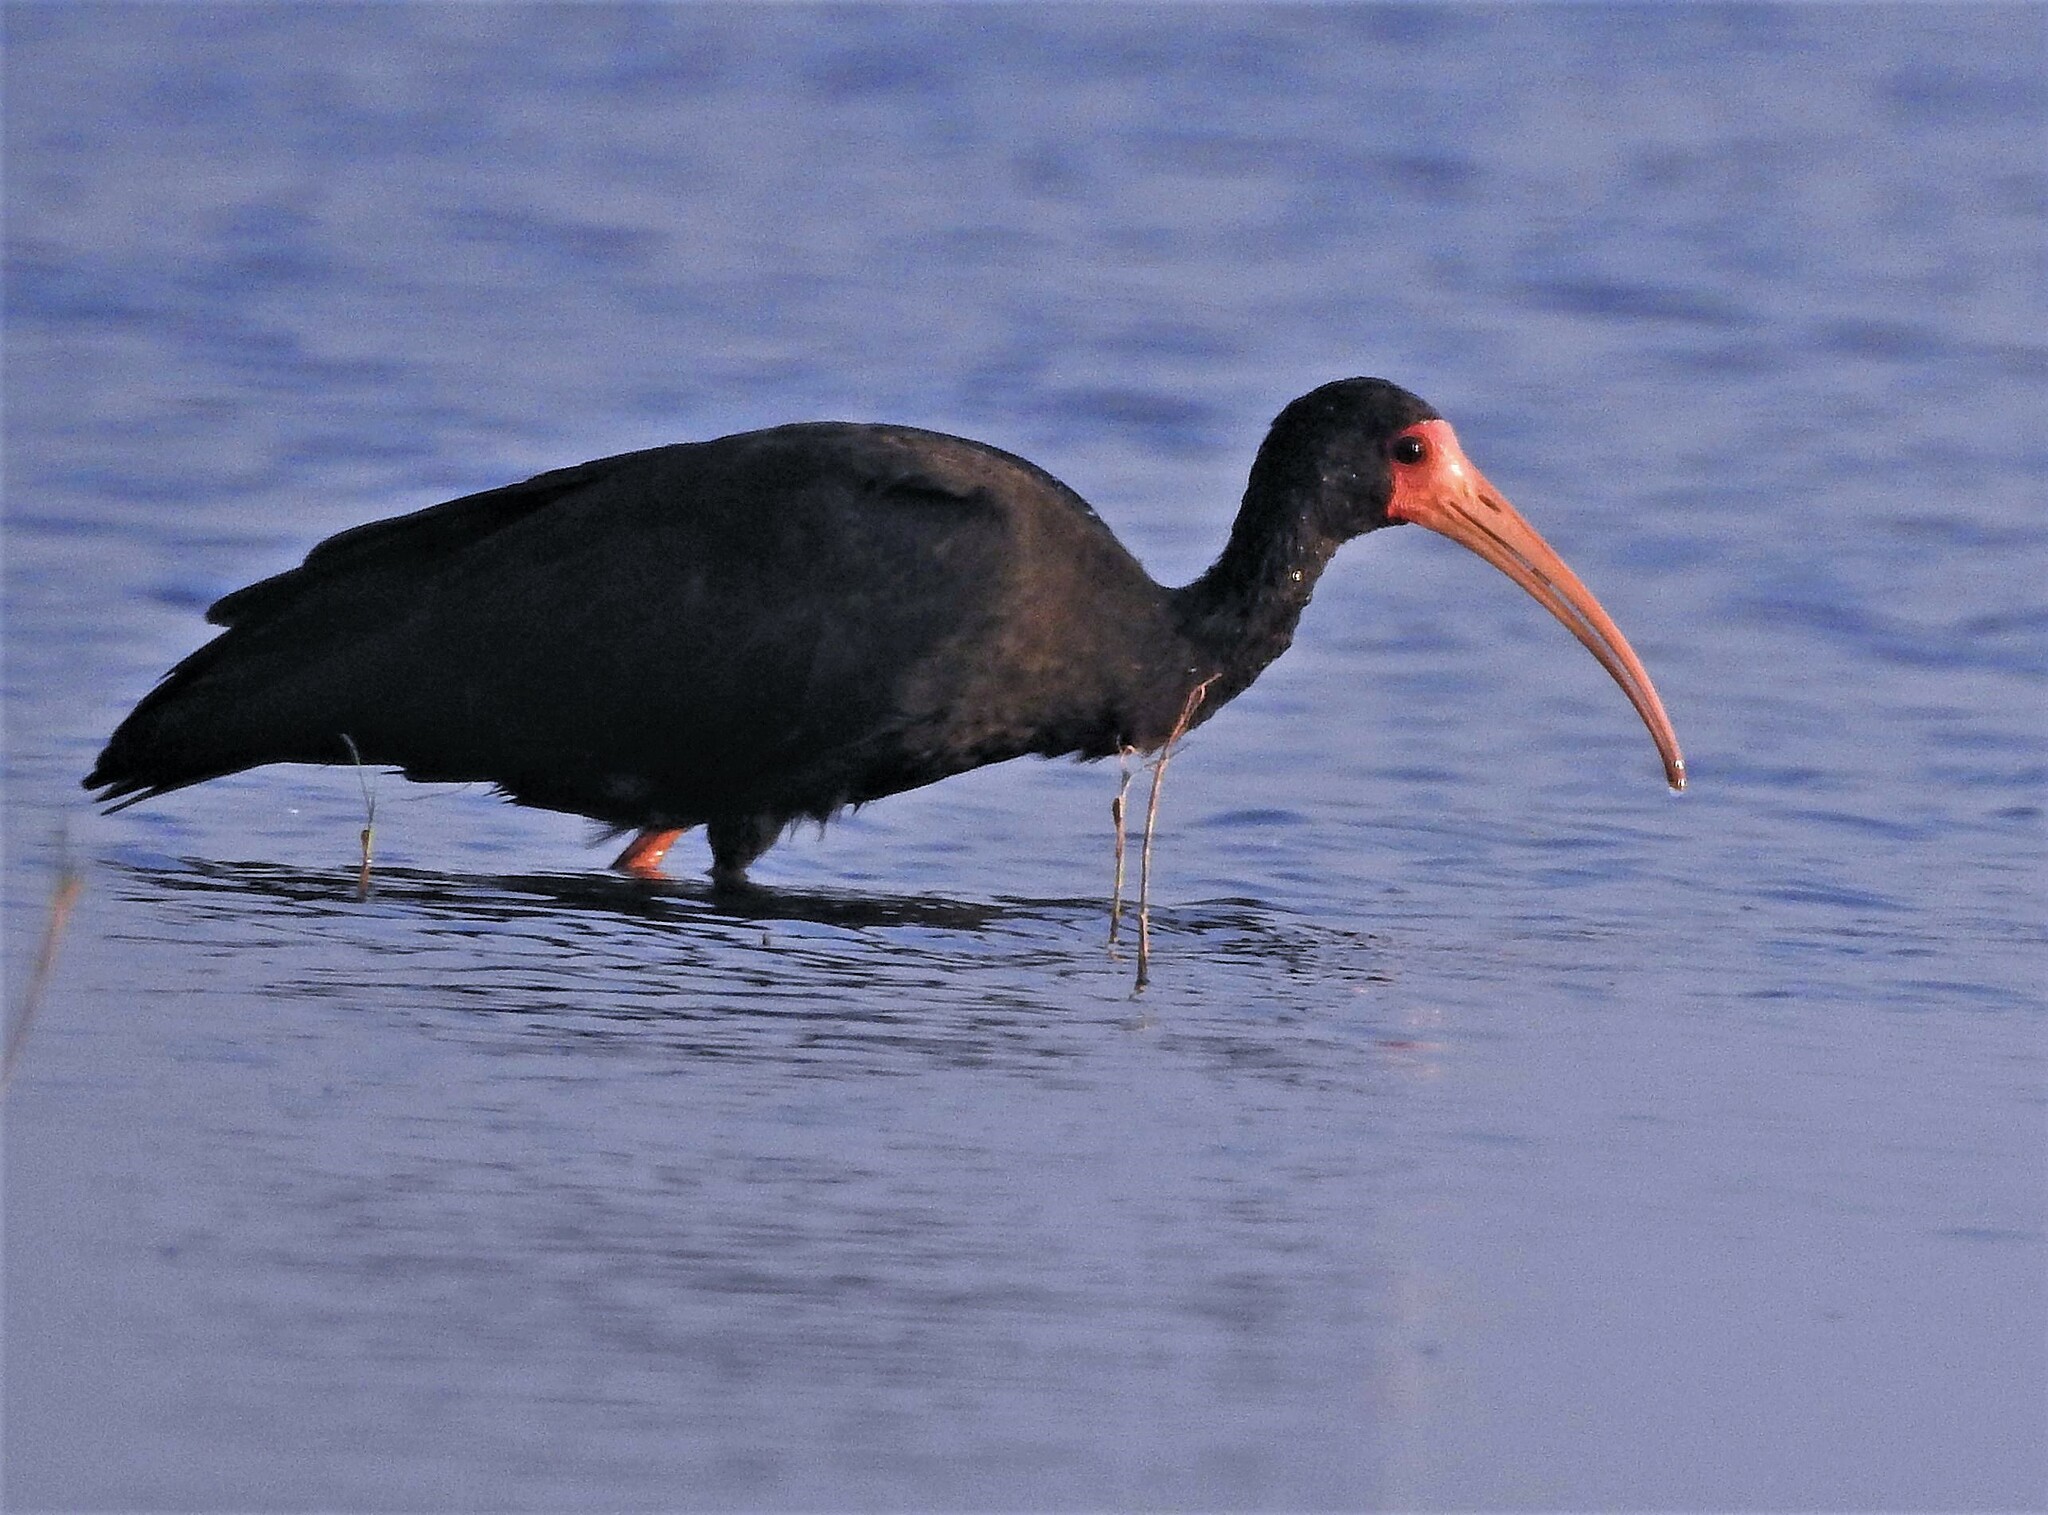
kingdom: Animalia
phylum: Chordata
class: Aves
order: Pelecaniformes
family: Threskiornithidae
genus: Phimosus
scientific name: Phimosus infuscatus
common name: Bare-faced ibis
